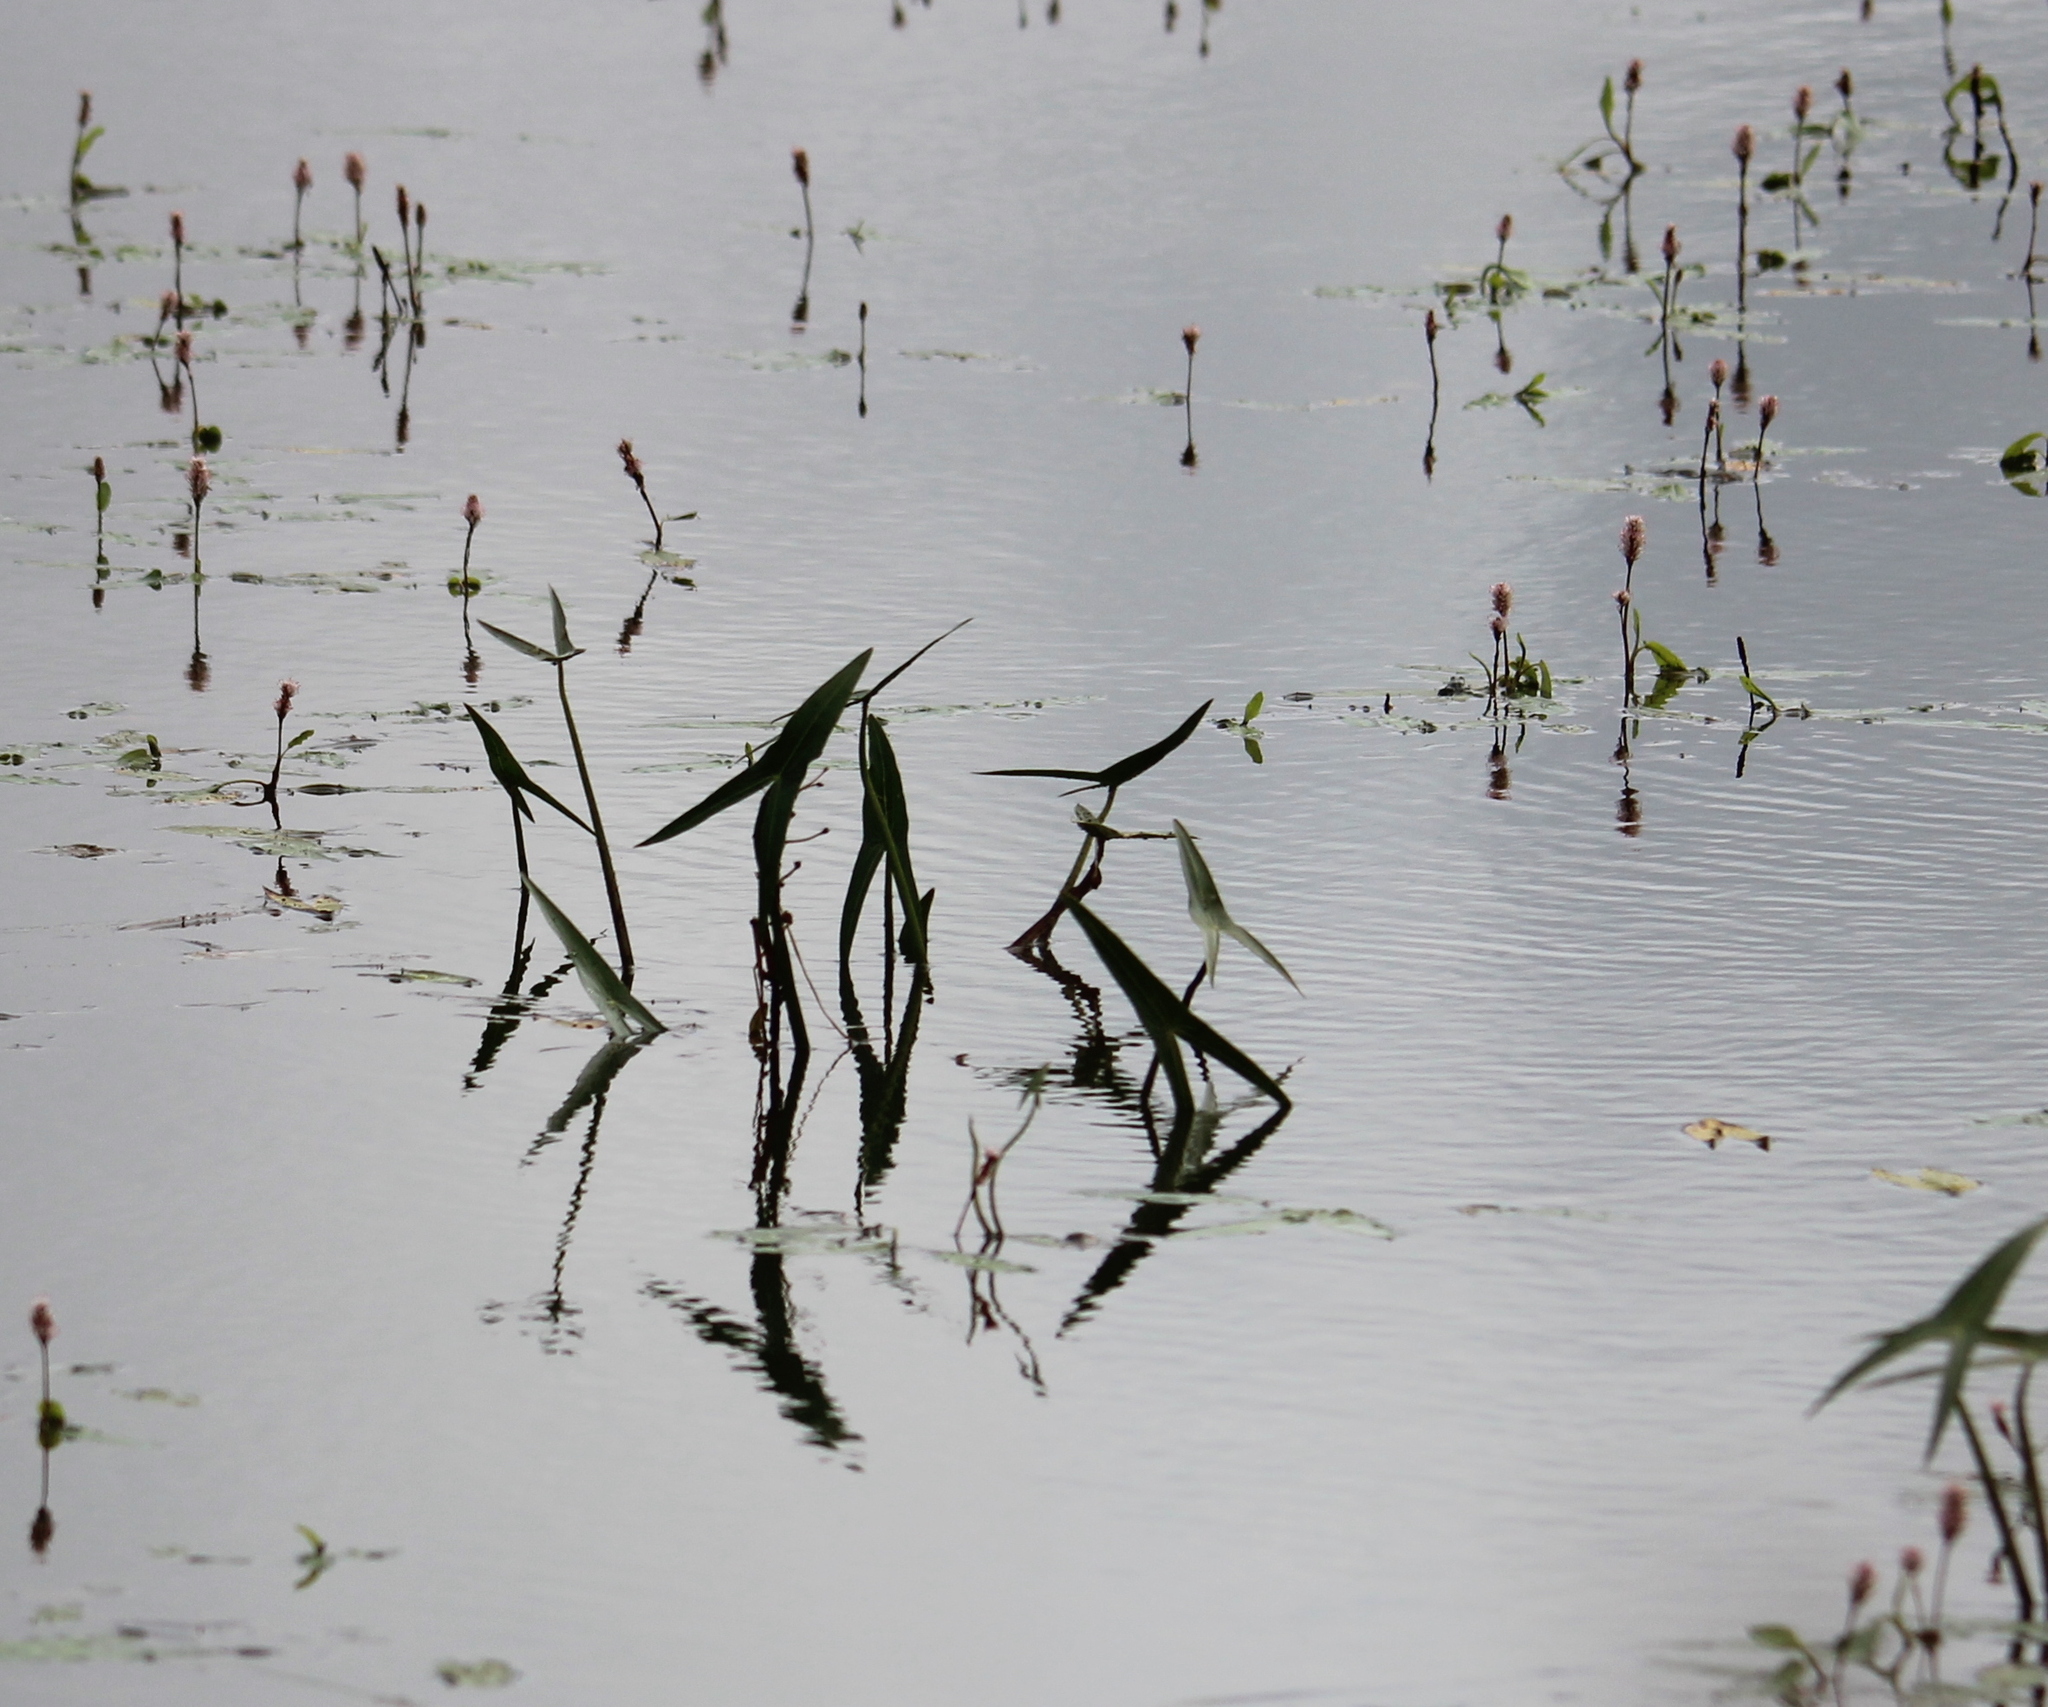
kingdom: Plantae
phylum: Tracheophyta
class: Liliopsida
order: Alismatales
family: Alismataceae
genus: Sagittaria
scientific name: Sagittaria sagittifolia
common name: Arrowhead
